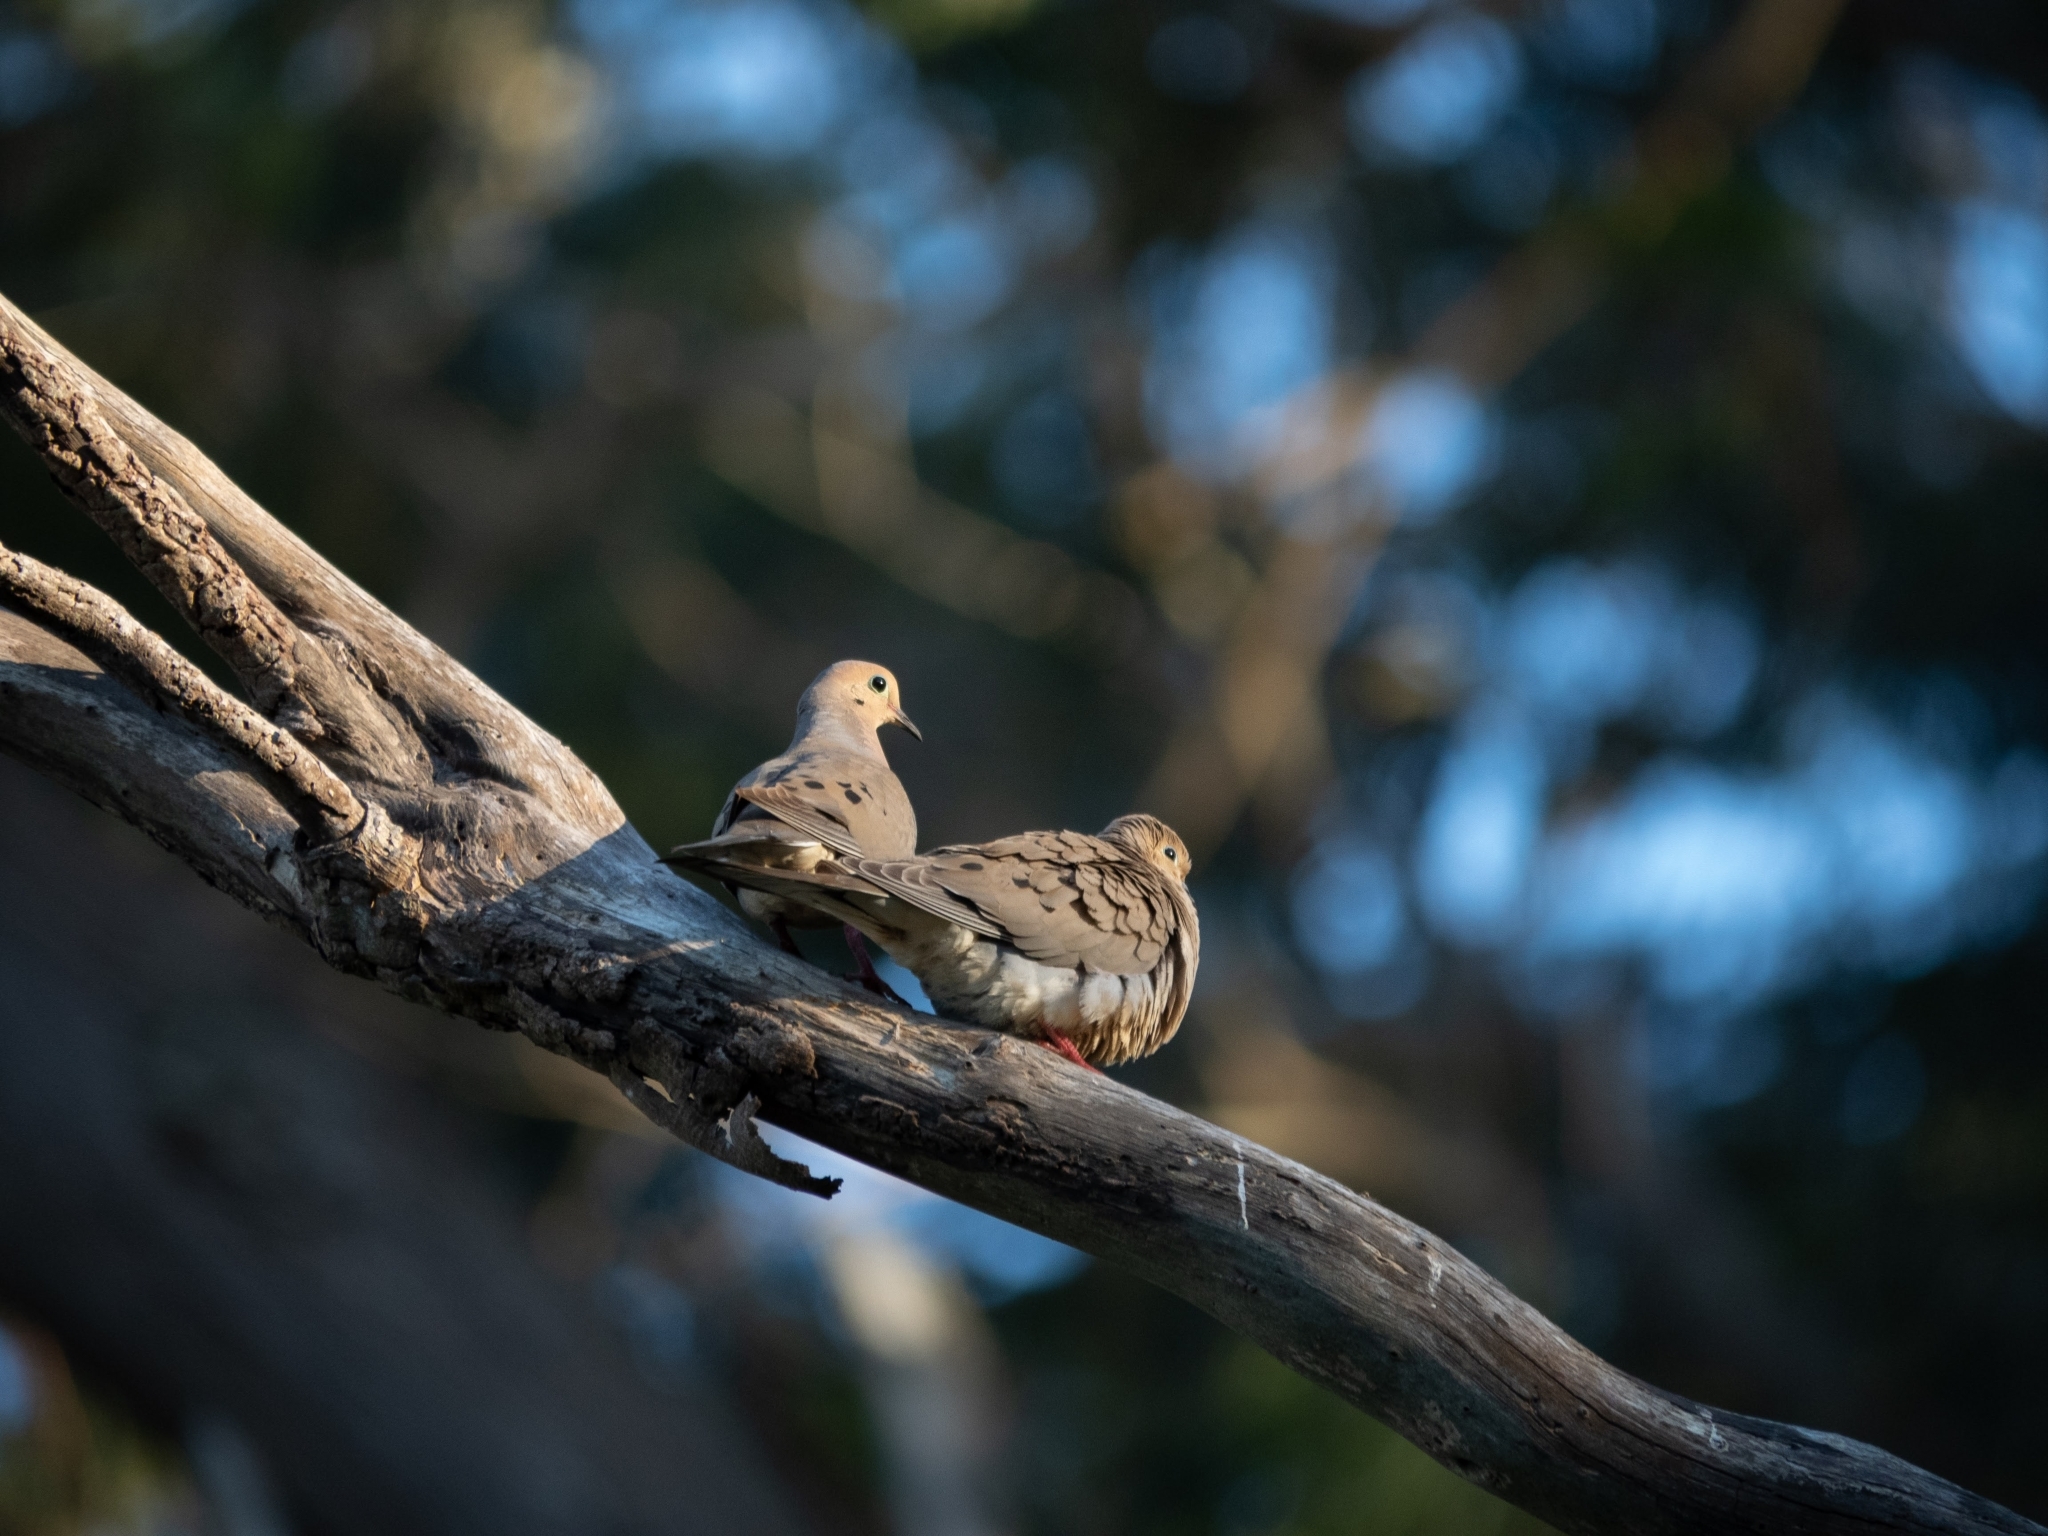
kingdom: Animalia
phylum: Chordata
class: Aves
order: Columbiformes
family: Columbidae
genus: Zenaida
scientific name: Zenaida macroura
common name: Mourning dove
